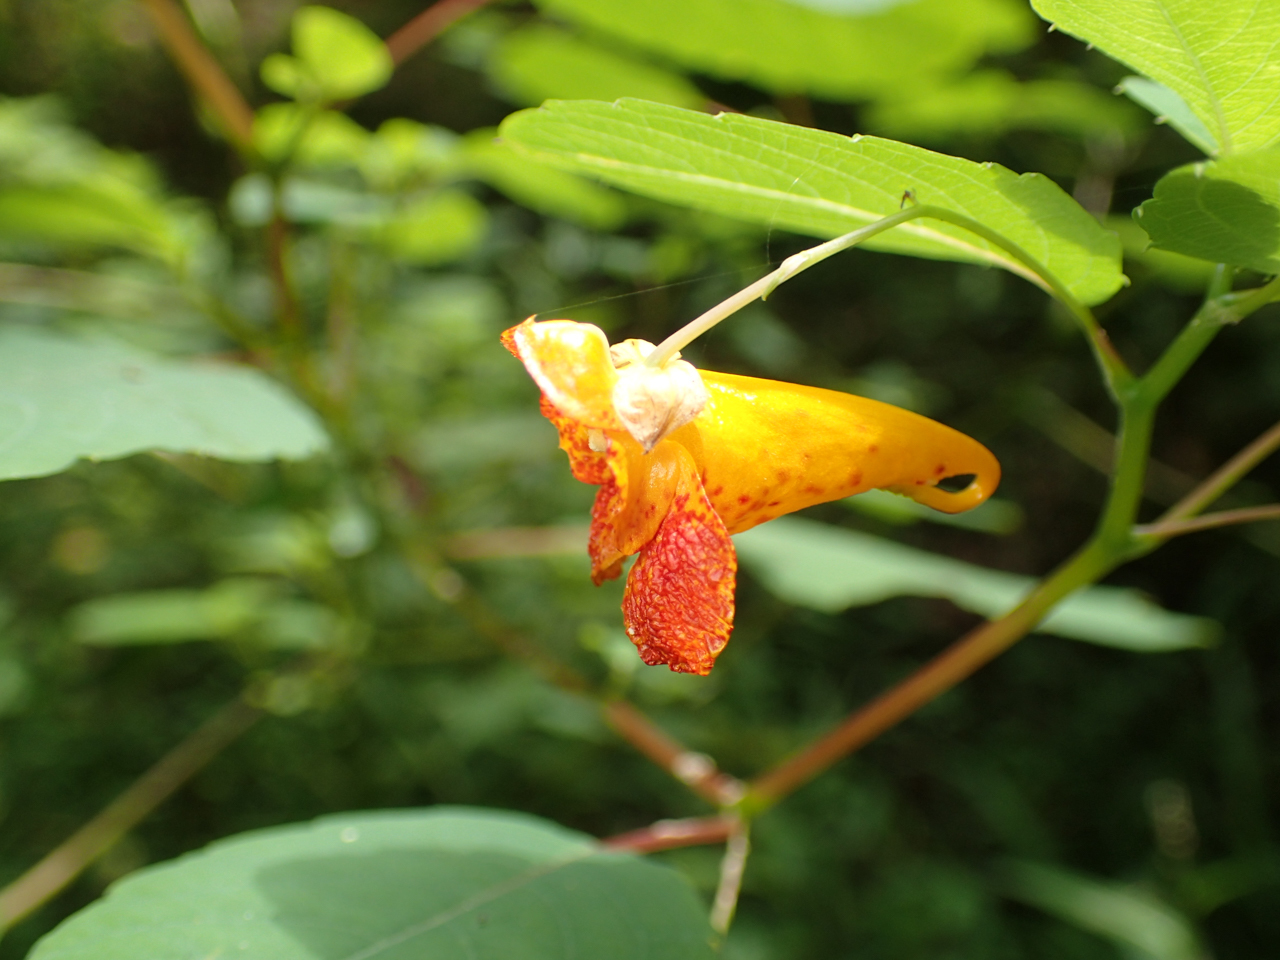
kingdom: Plantae
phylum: Tracheophyta
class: Magnoliopsida
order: Ericales
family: Balsaminaceae
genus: Impatiens
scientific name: Impatiens capensis
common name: Orange balsam
